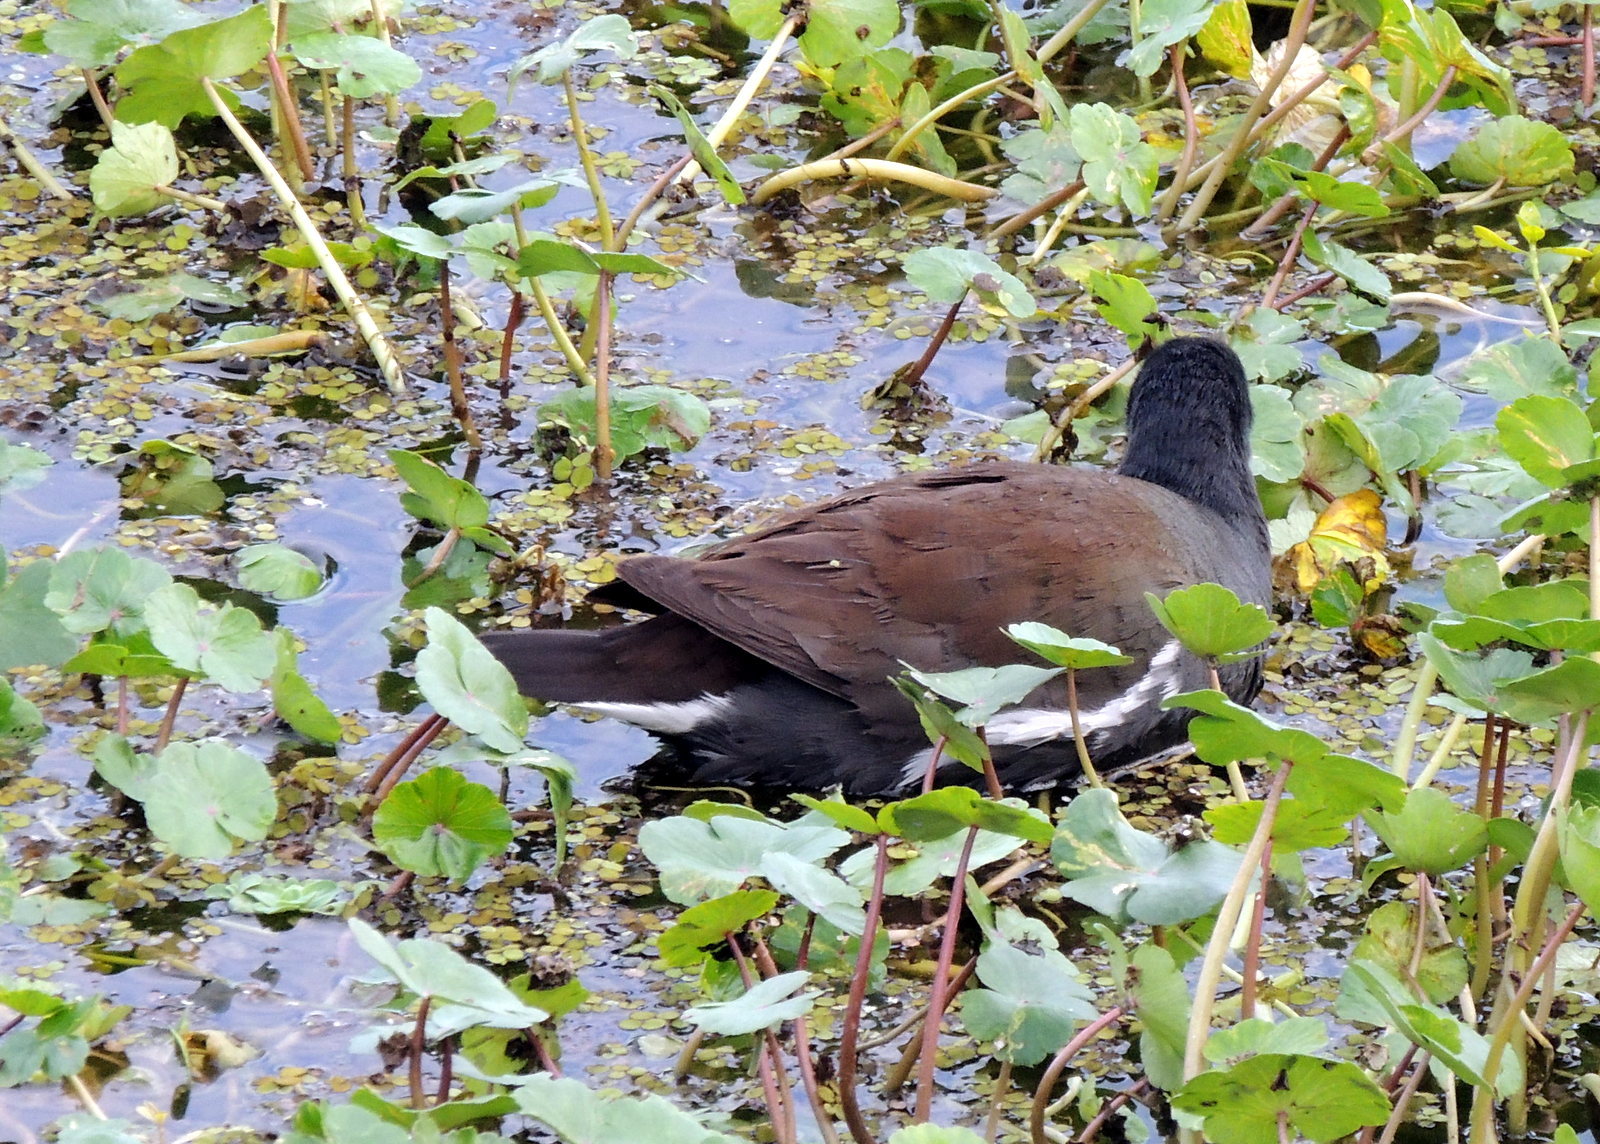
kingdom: Animalia
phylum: Chordata
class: Aves
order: Gruiformes
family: Rallidae
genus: Gallinula
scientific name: Gallinula chloropus
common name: Common moorhen
